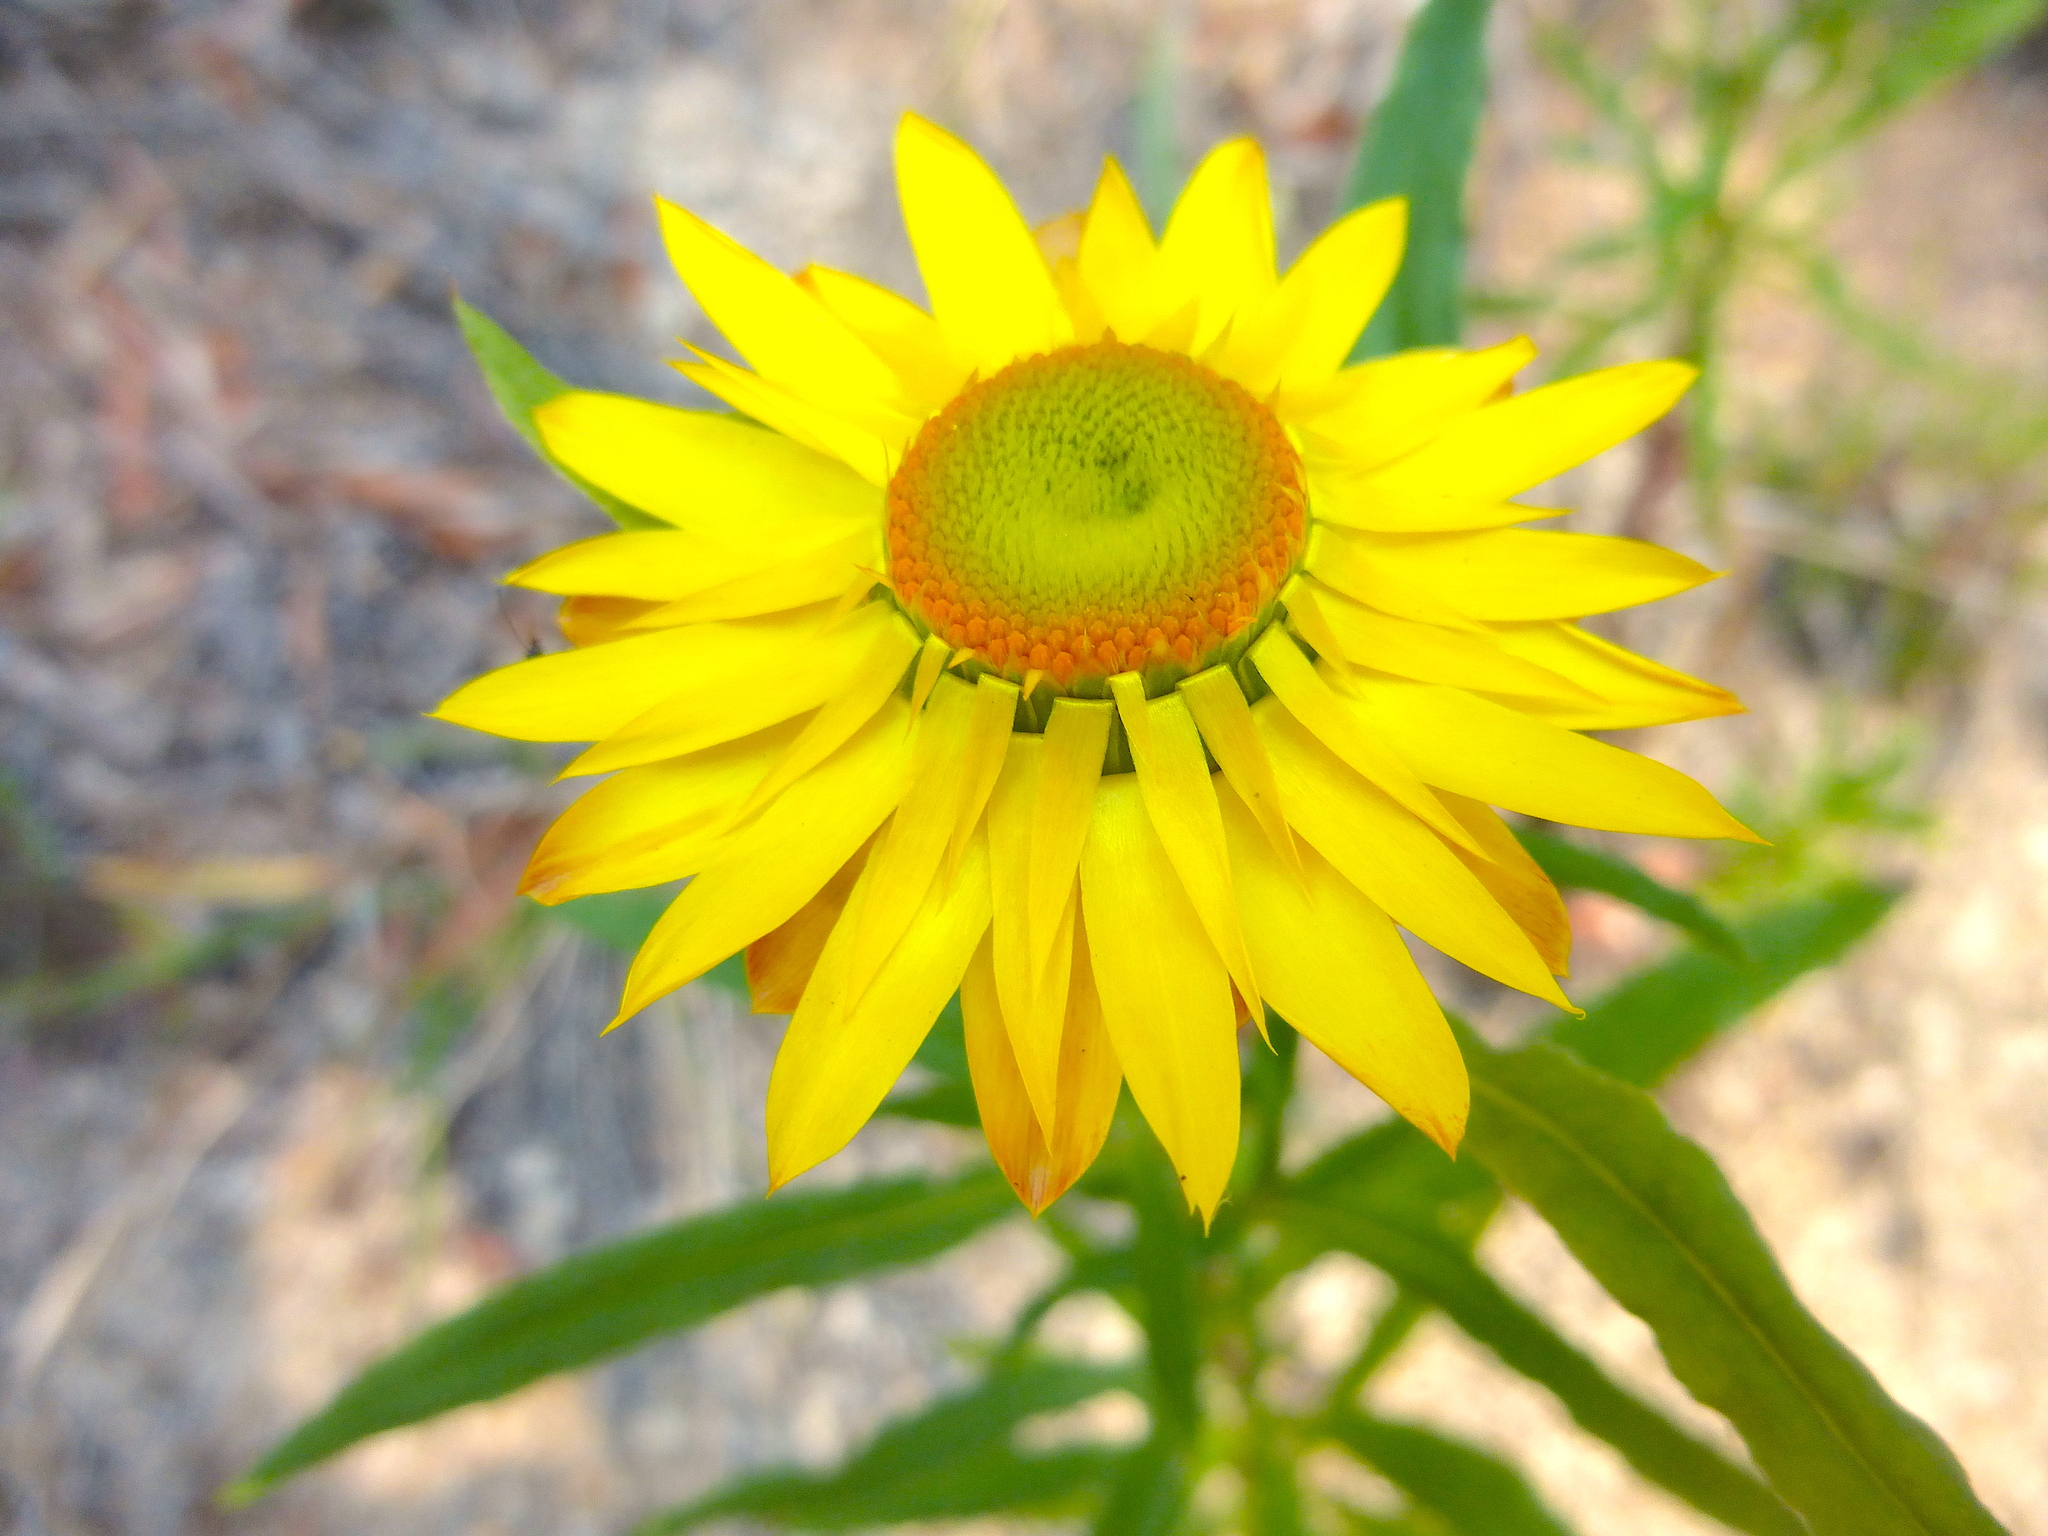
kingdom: Plantae
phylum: Tracheophyta
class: Magnoliopsida
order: Asterales
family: Asteraceae
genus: Xerochrysum
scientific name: Xerochrysum bracteatum
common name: Bracted strawflower
